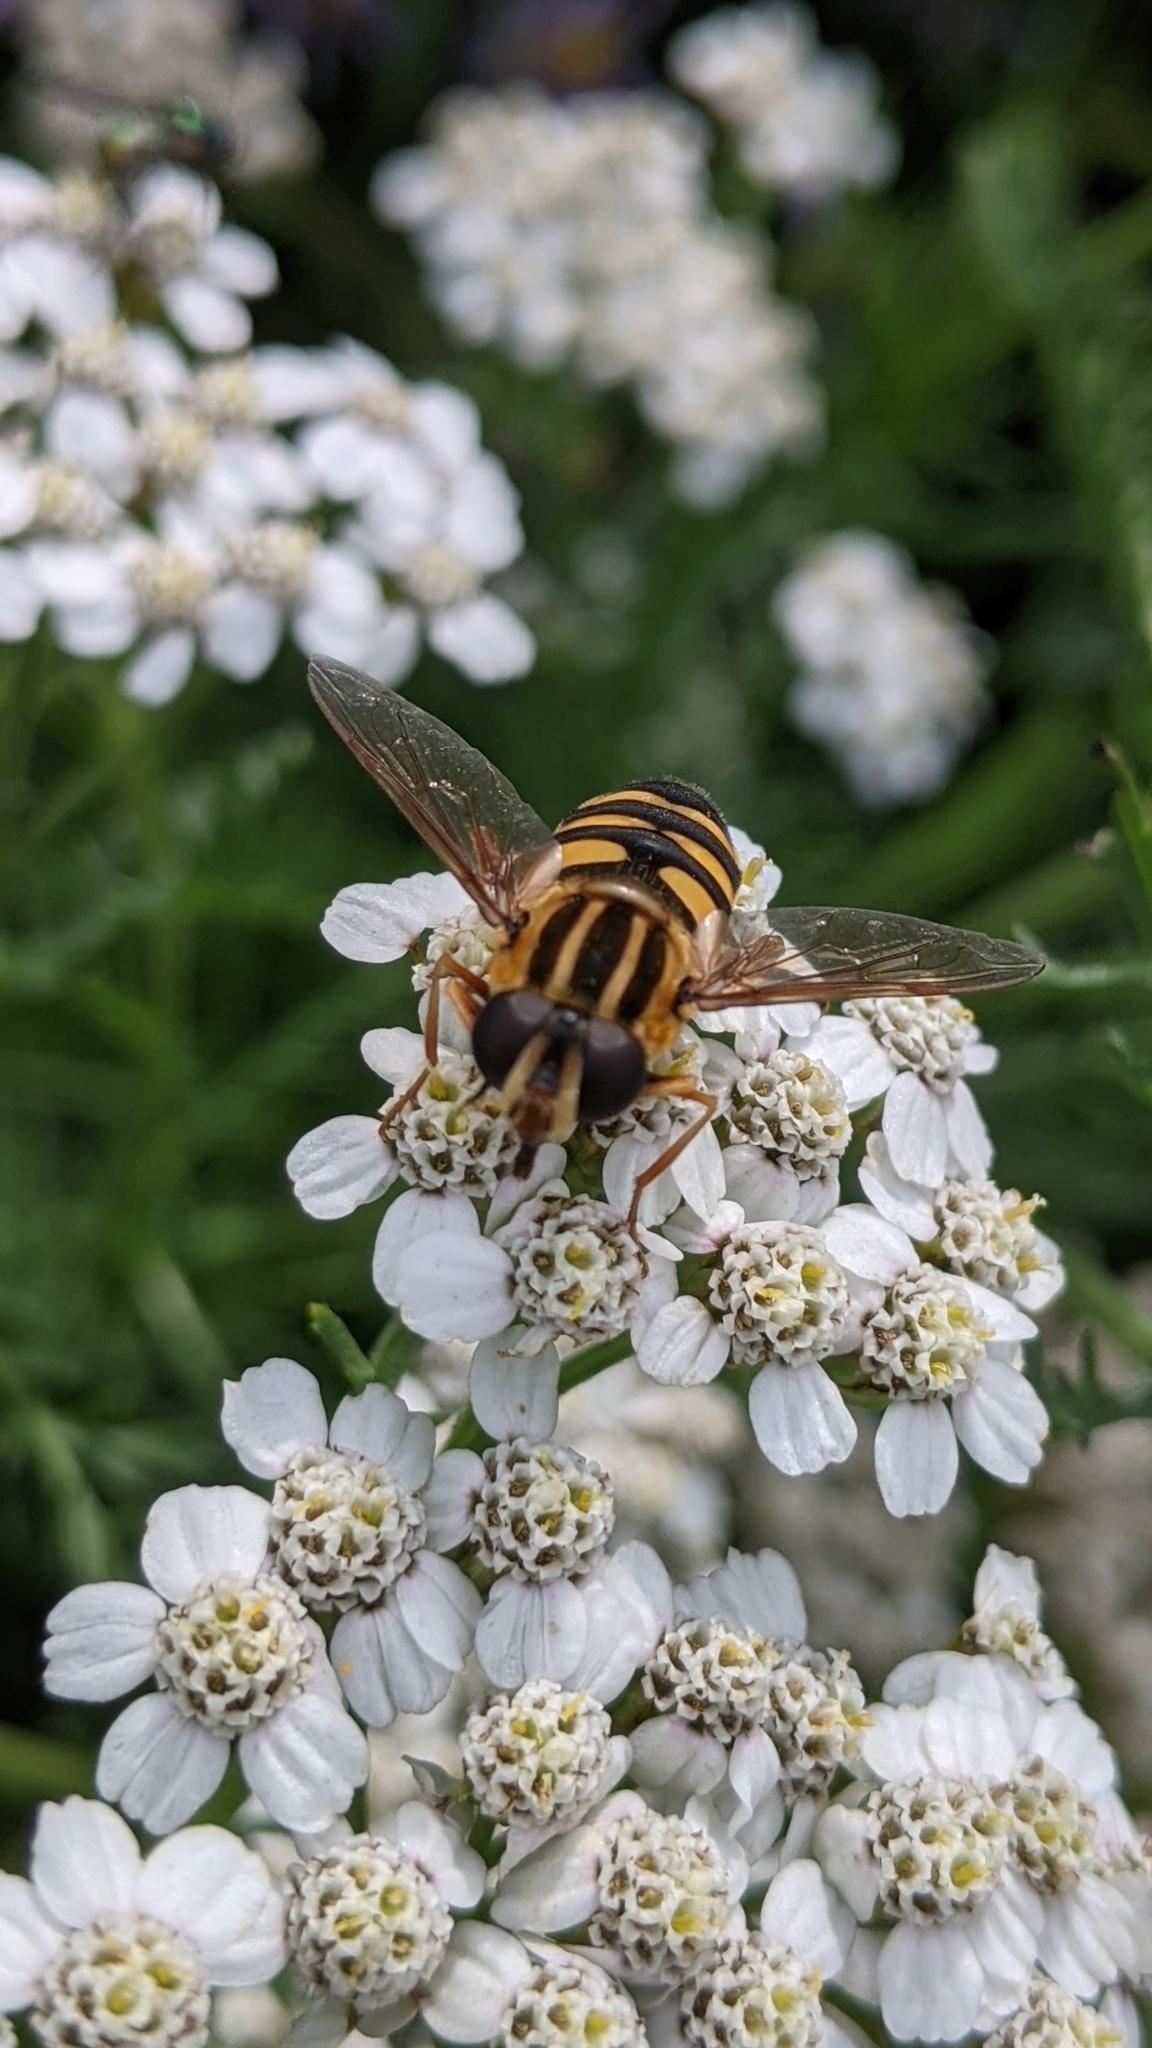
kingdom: Animalia
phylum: Arthropoda
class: Insecta
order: Diptera
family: Syrphidae
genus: Helophilus
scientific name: Helophilus fasciatus
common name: Narrow-headed marsh fly
